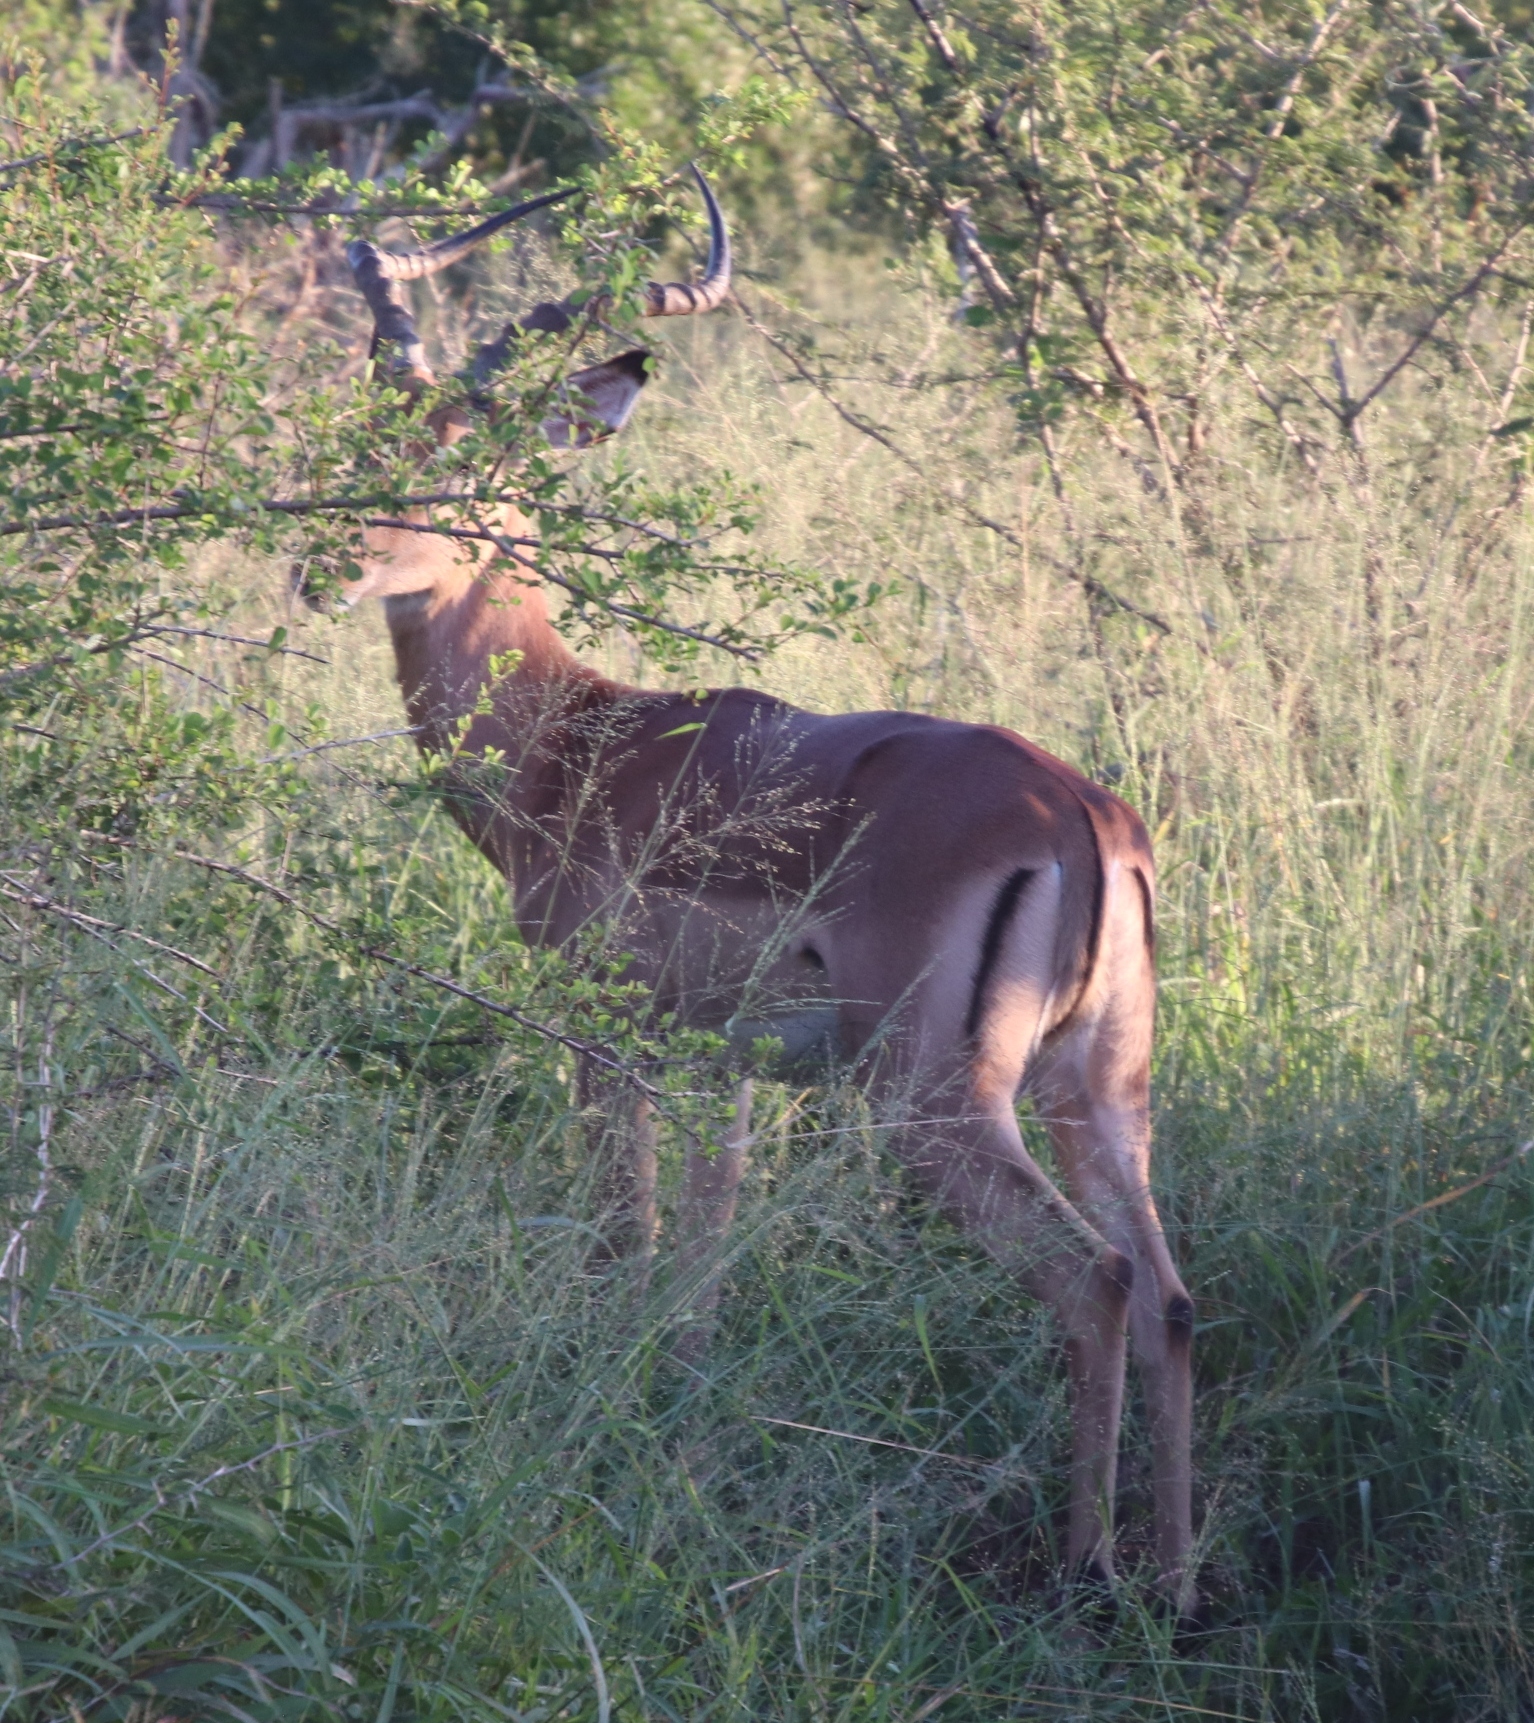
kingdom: Animalia
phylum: Chordata
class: Mammalia
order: Artiodactyla
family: Bovidae
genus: Aepyceros
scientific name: Aepyceros melampus
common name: Impala
